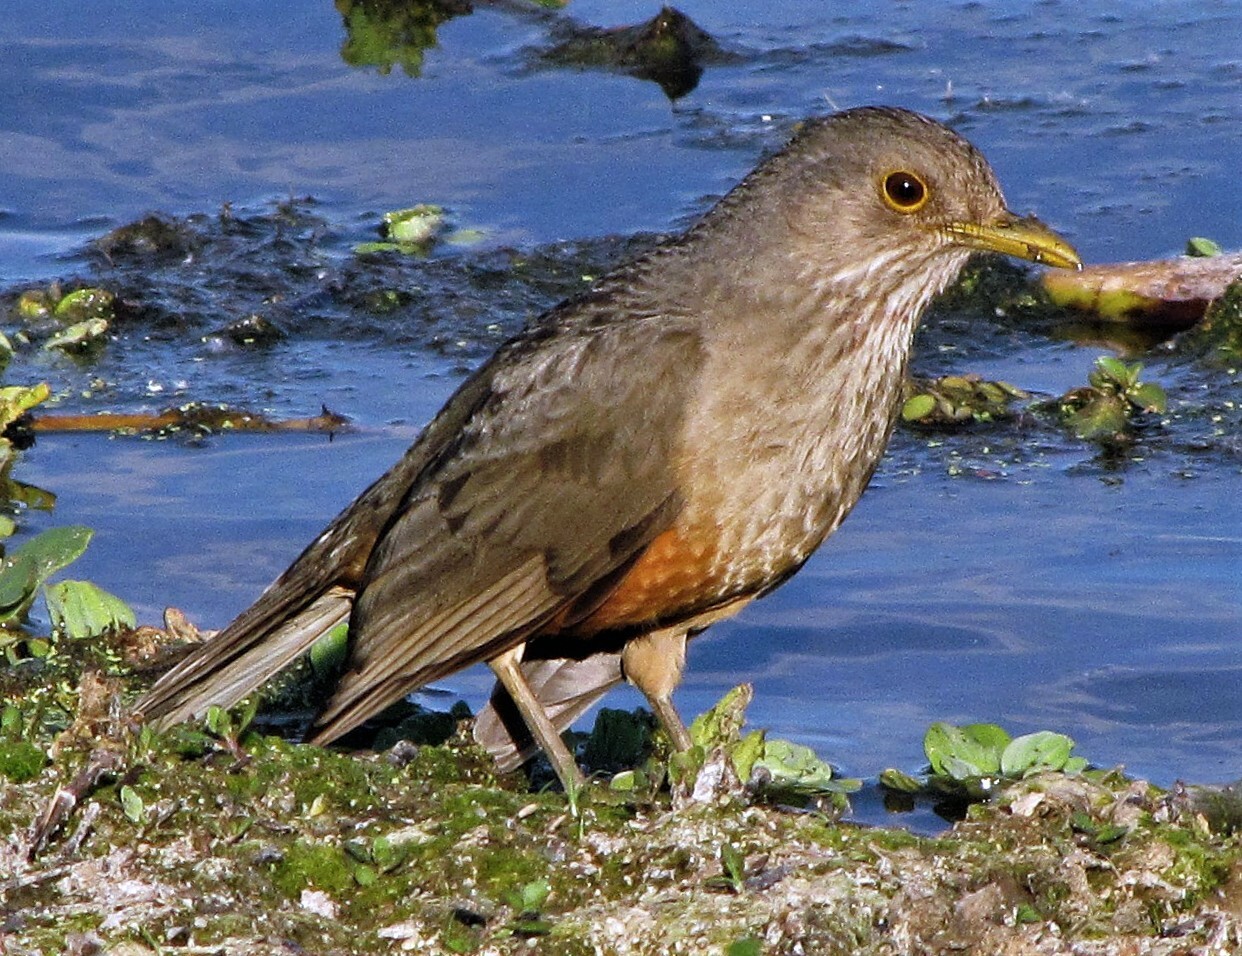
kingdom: Animalia
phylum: Chordata
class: Aves
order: Passeriformes
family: Turdidae
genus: Turdus
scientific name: Turdus rufiventris
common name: Rufous-bellied thrush
